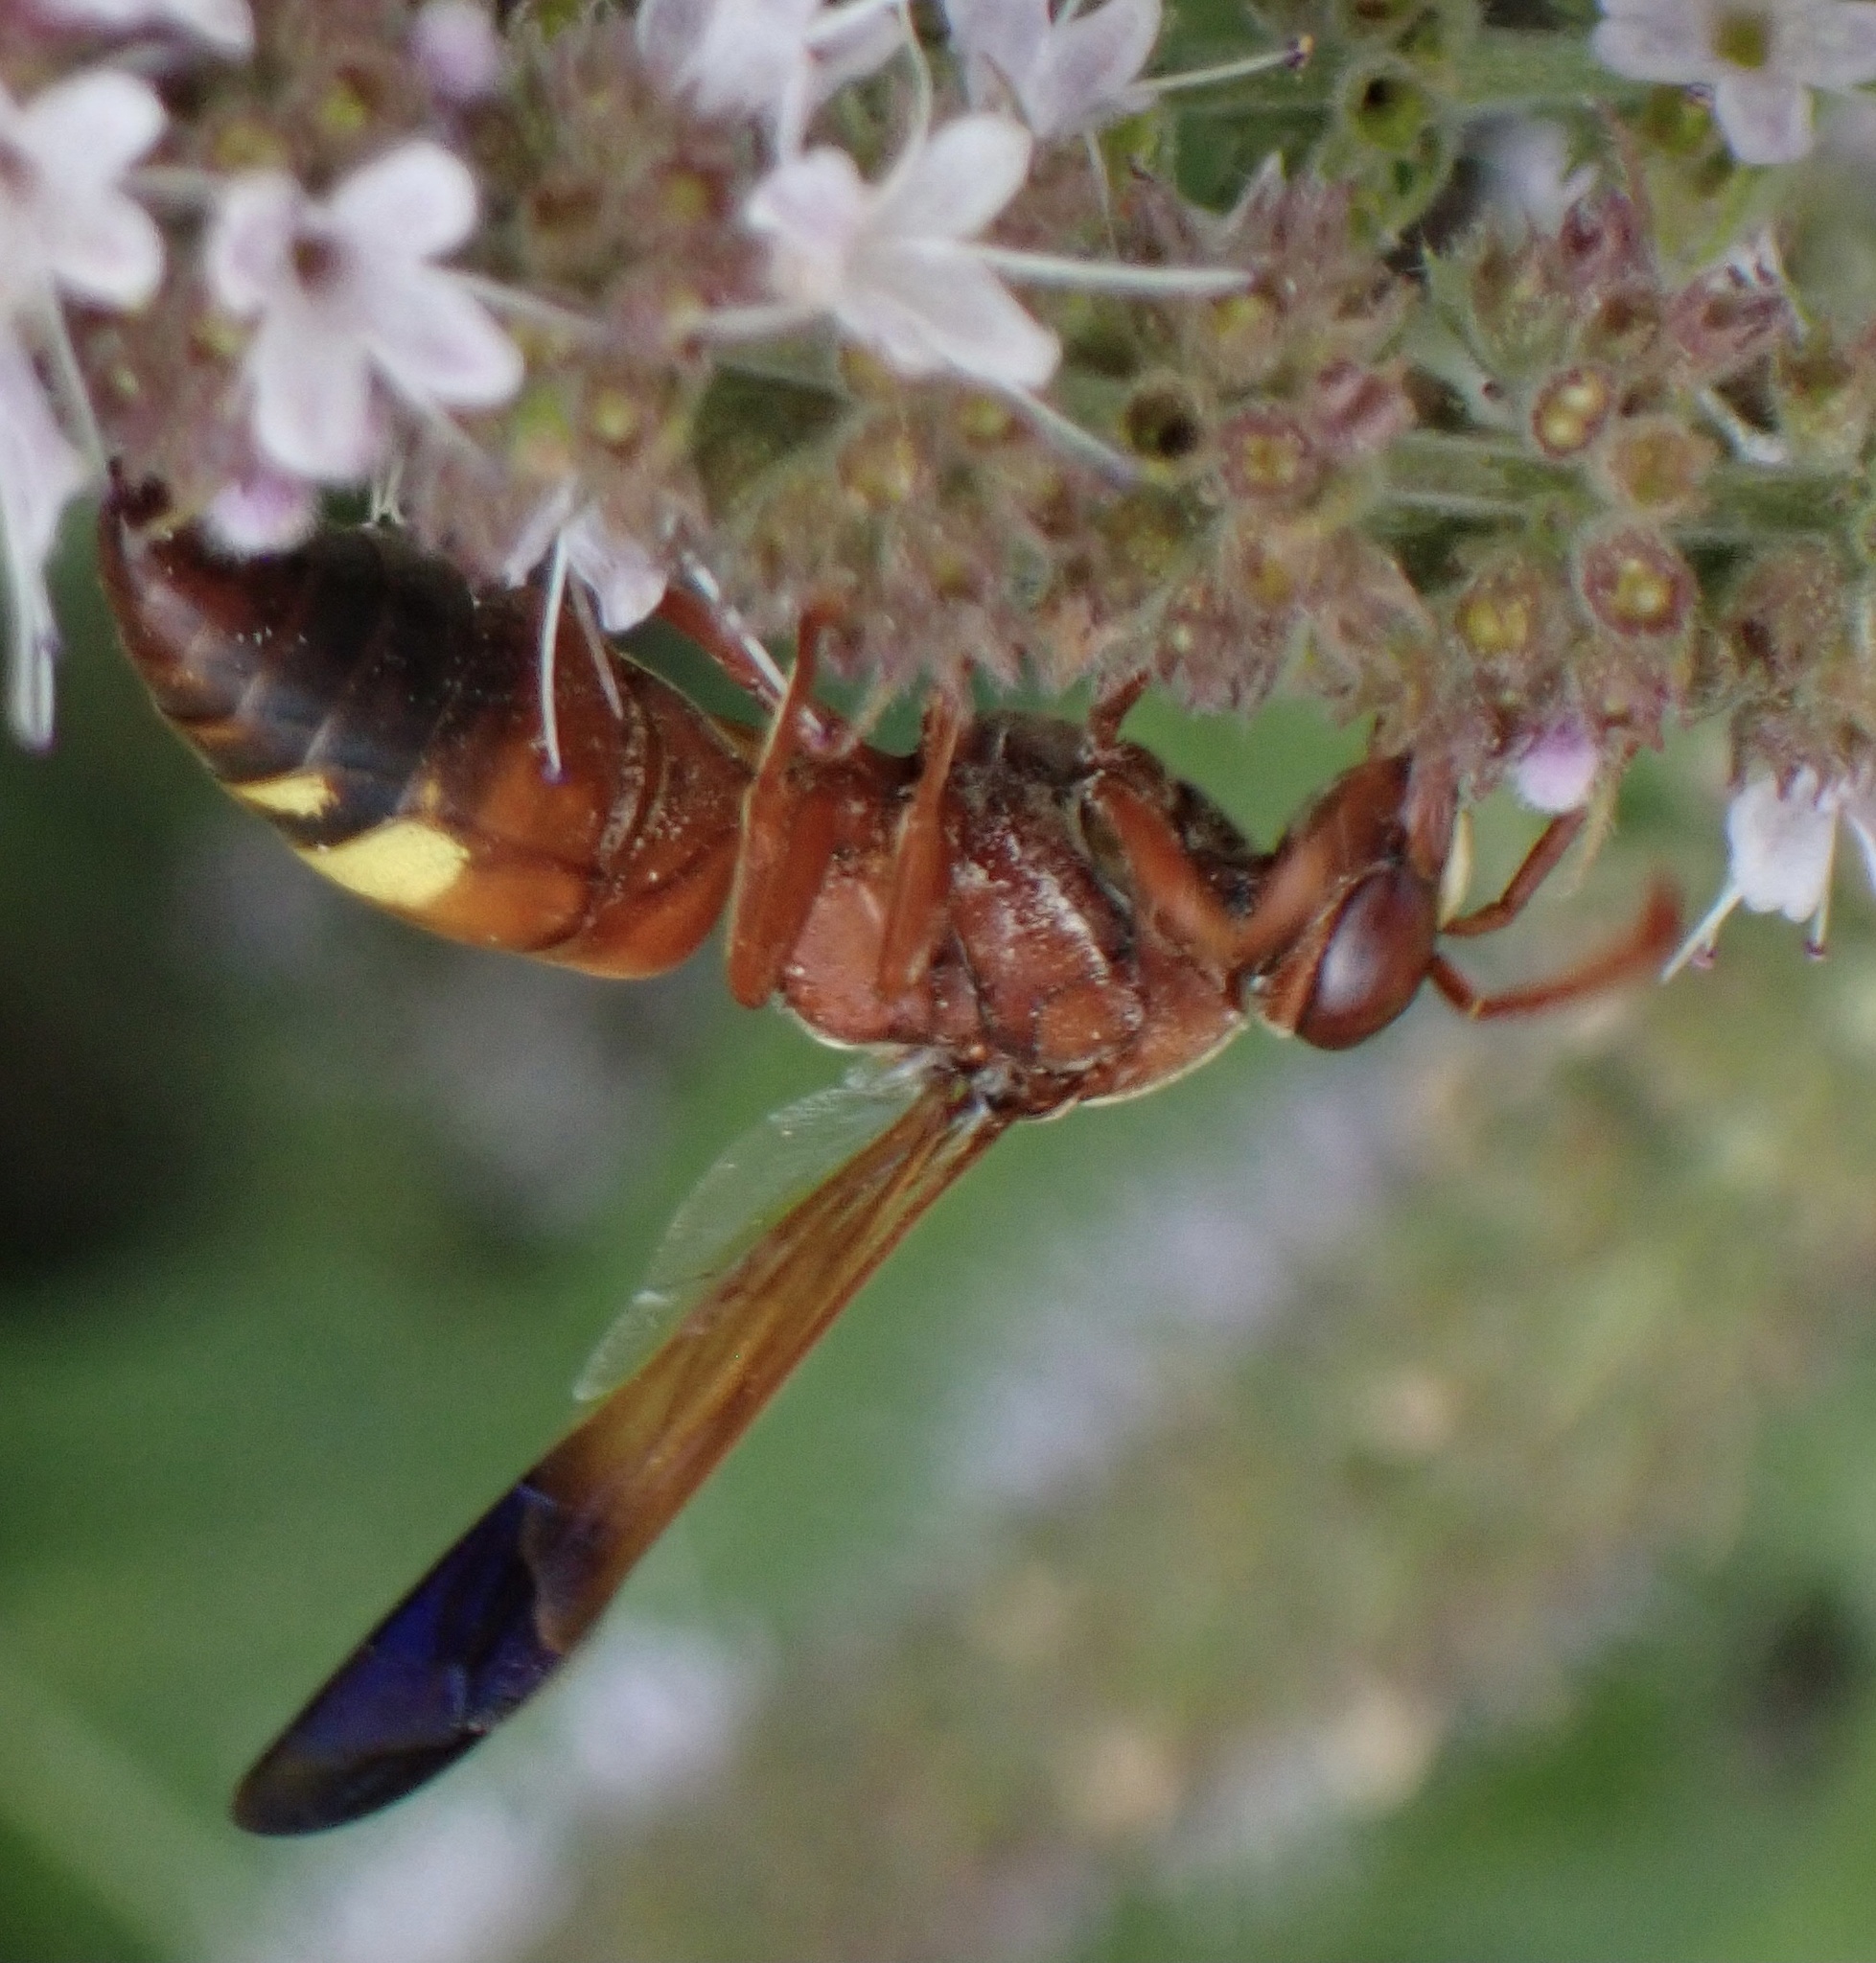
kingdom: Animalia
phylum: Arthropoda
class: Insecta
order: Hymenoptera
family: Eumenidae
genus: Rhynchium
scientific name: Rhynchium oculatum
